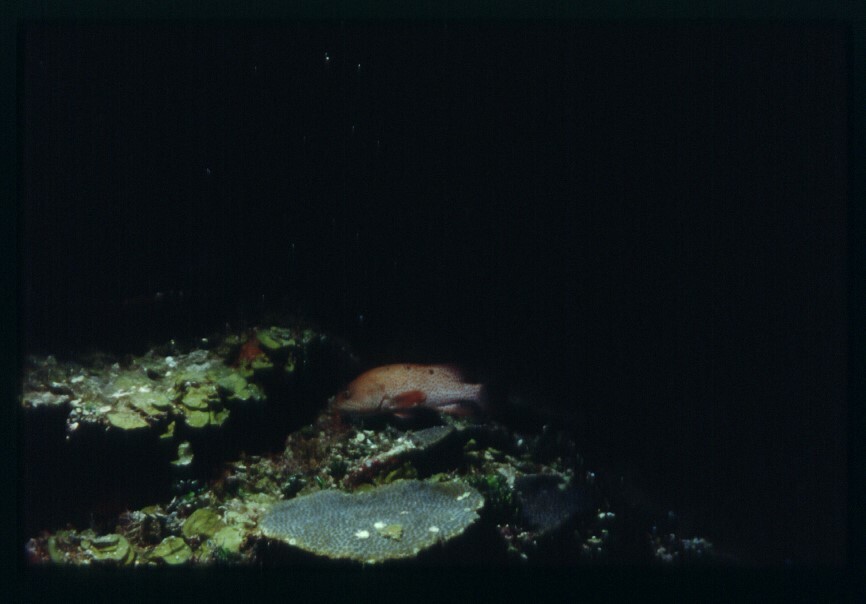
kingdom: Animalia
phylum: Chordata
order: Perciformes
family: Serranidae
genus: Cephalopholis
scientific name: Cephalopholis cruentata
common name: Graysby
